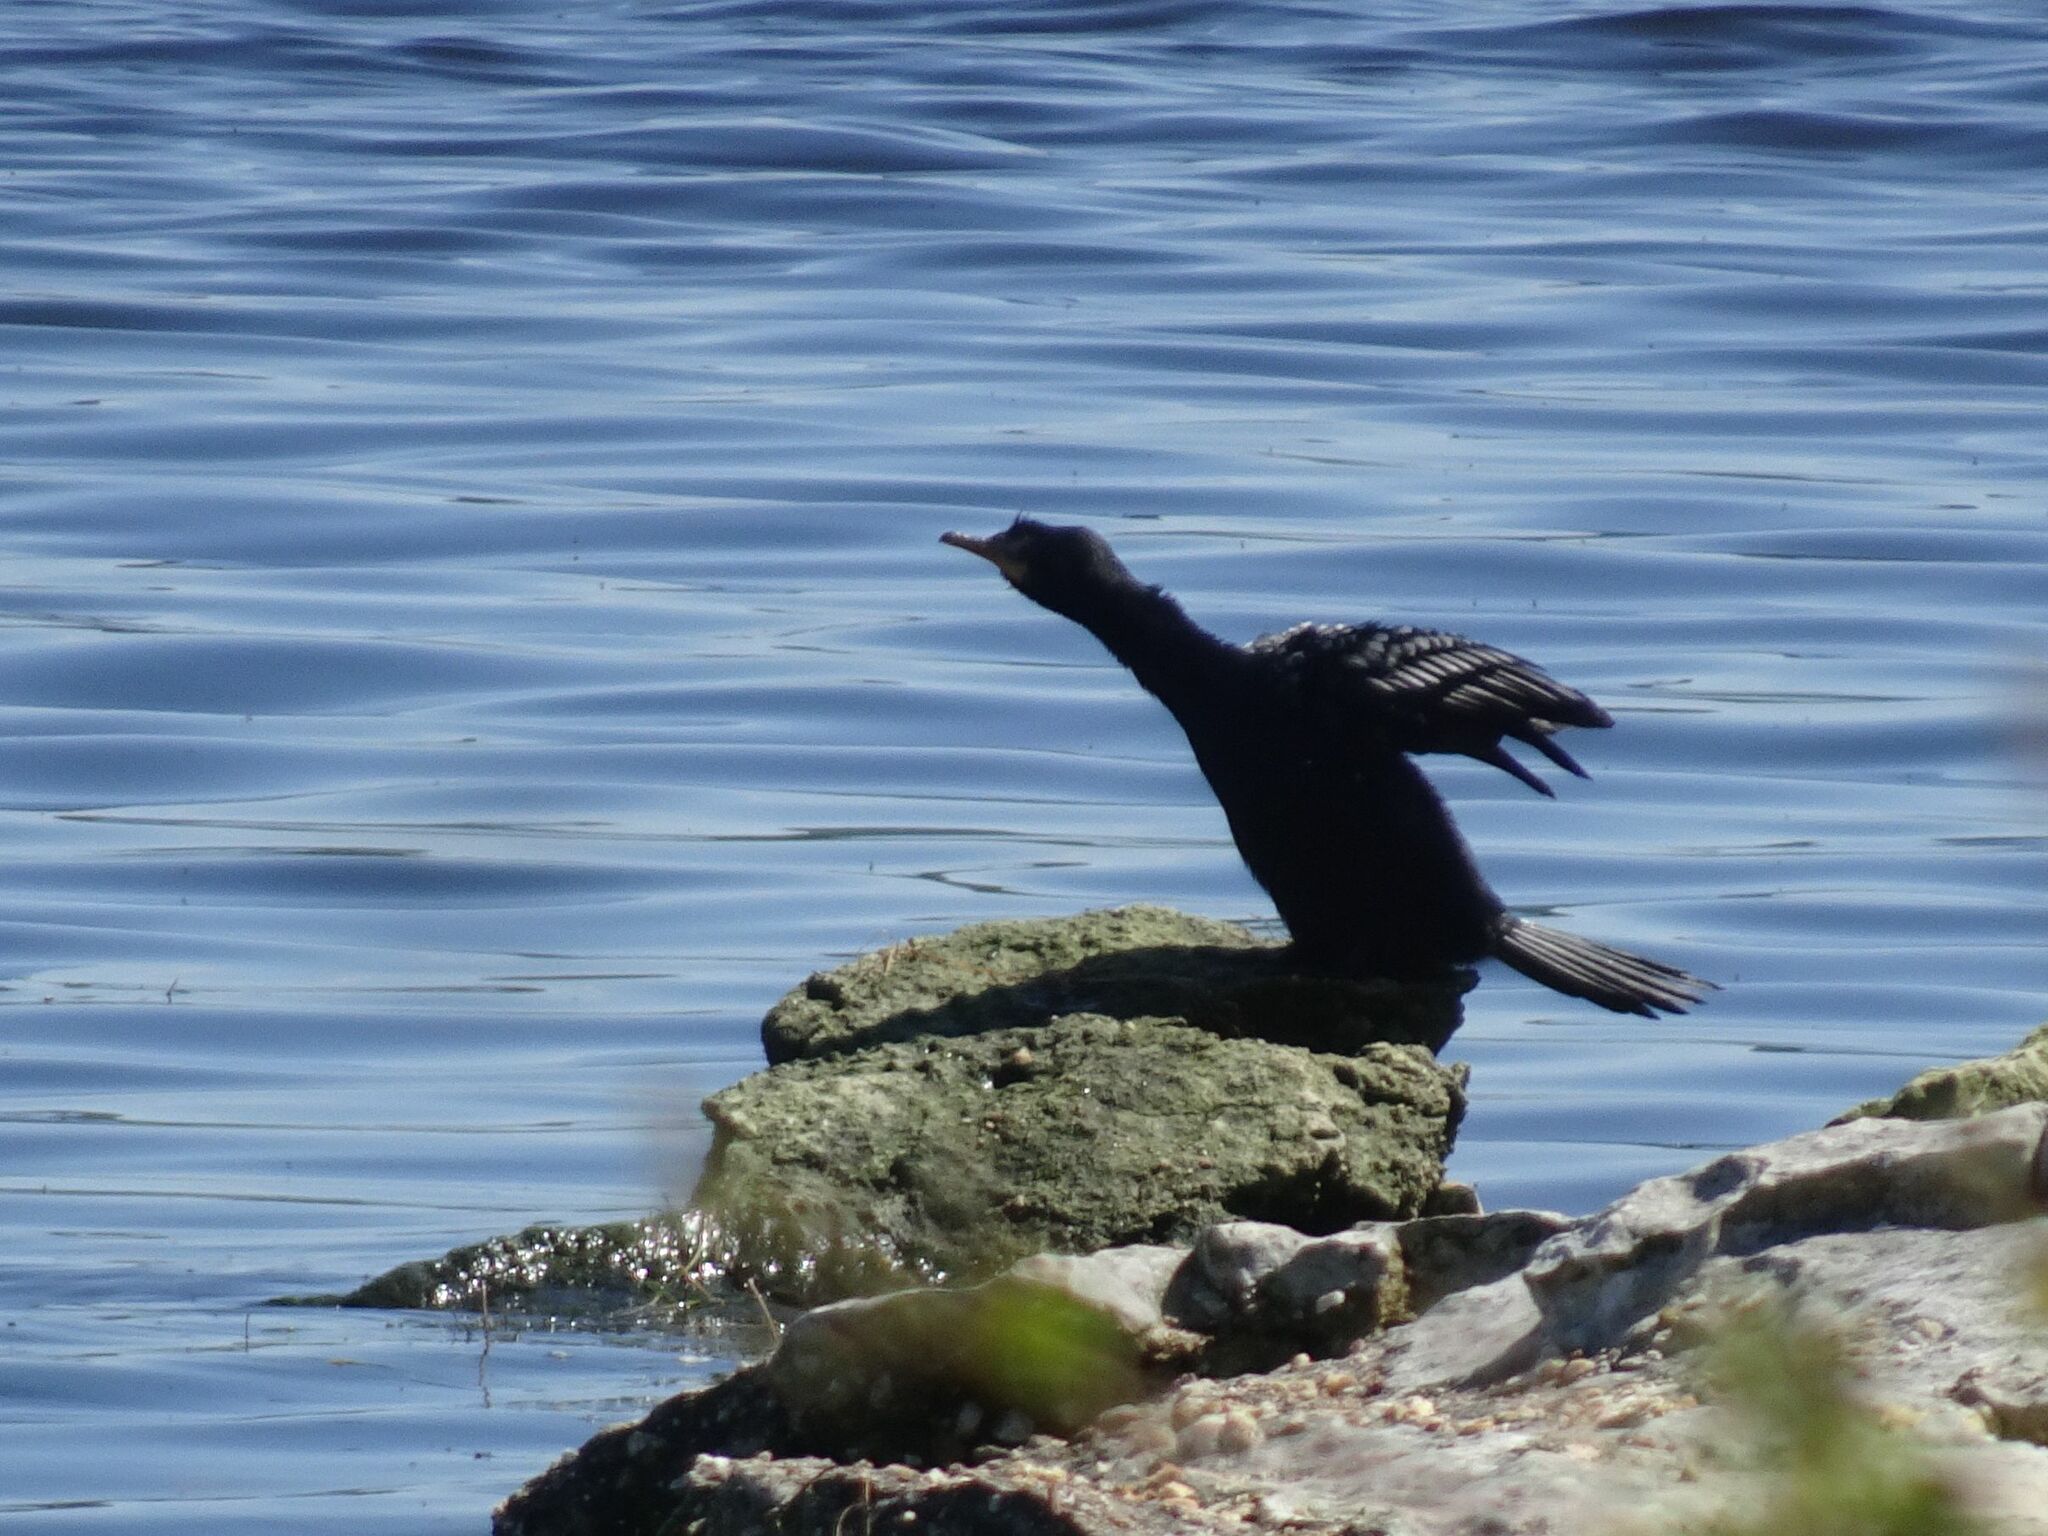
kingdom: Animalia
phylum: Chordata
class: Aves
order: Suliformes
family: Phalacrocoracidae
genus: Microcarbo
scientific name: Microcarbo africanus
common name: Long-tailed cormorant
